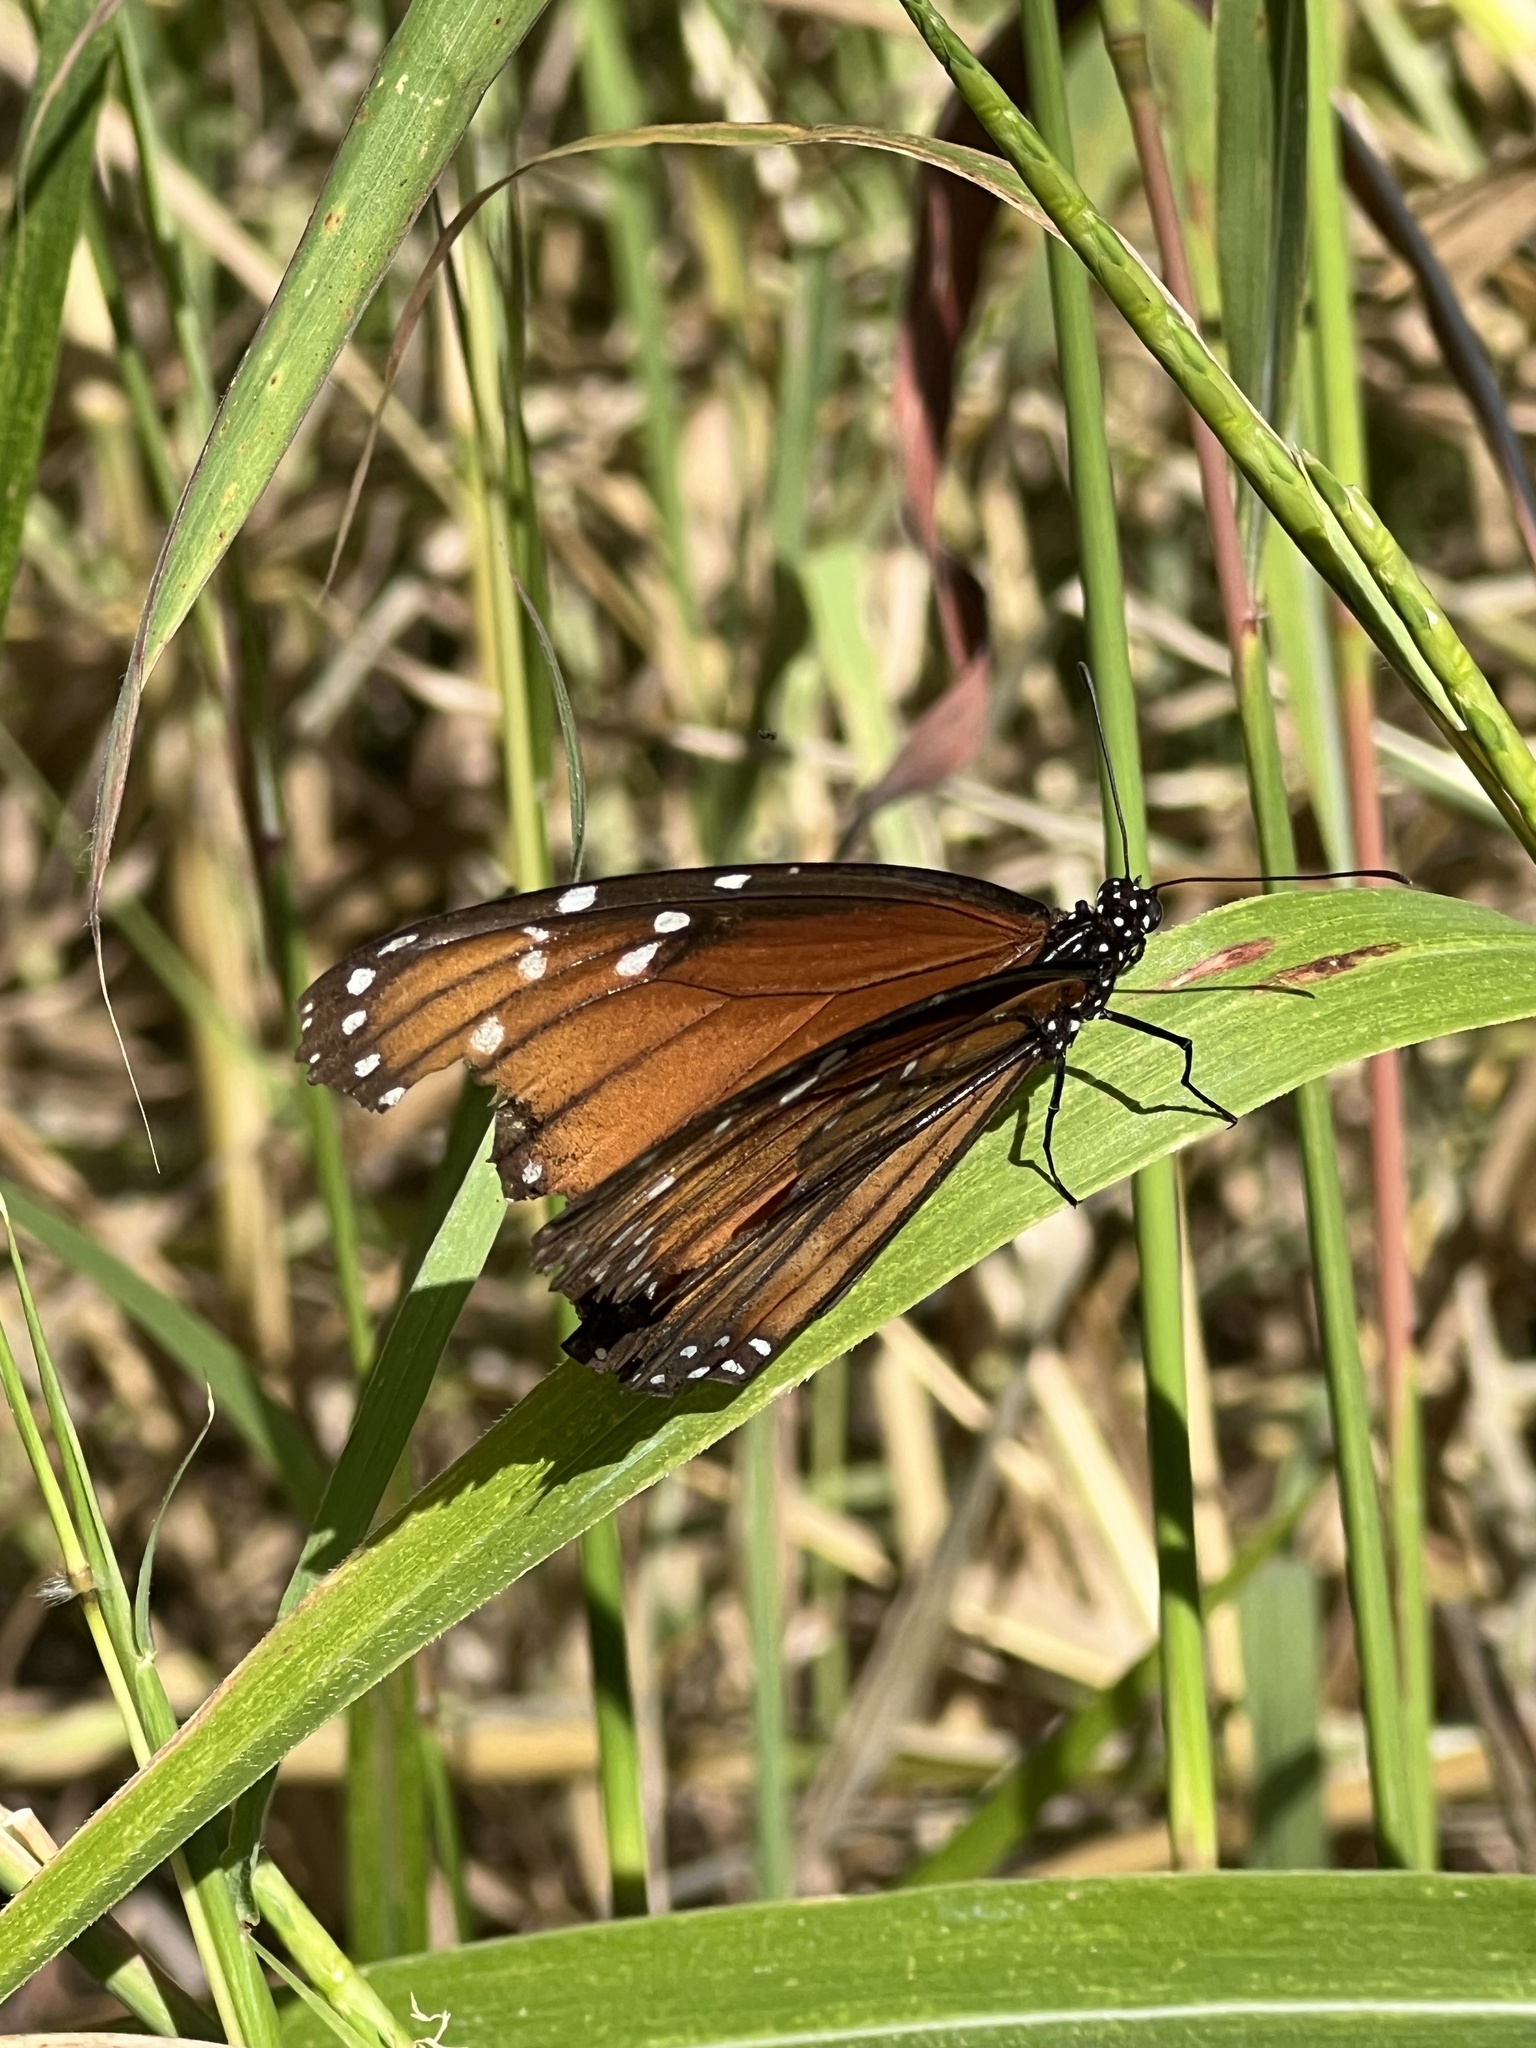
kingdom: Animalia
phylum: Arthropoda
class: Insecta
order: Lepidoptera
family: Nymphalidae
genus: Danaus
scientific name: Danaus eresimus
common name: Soldier
